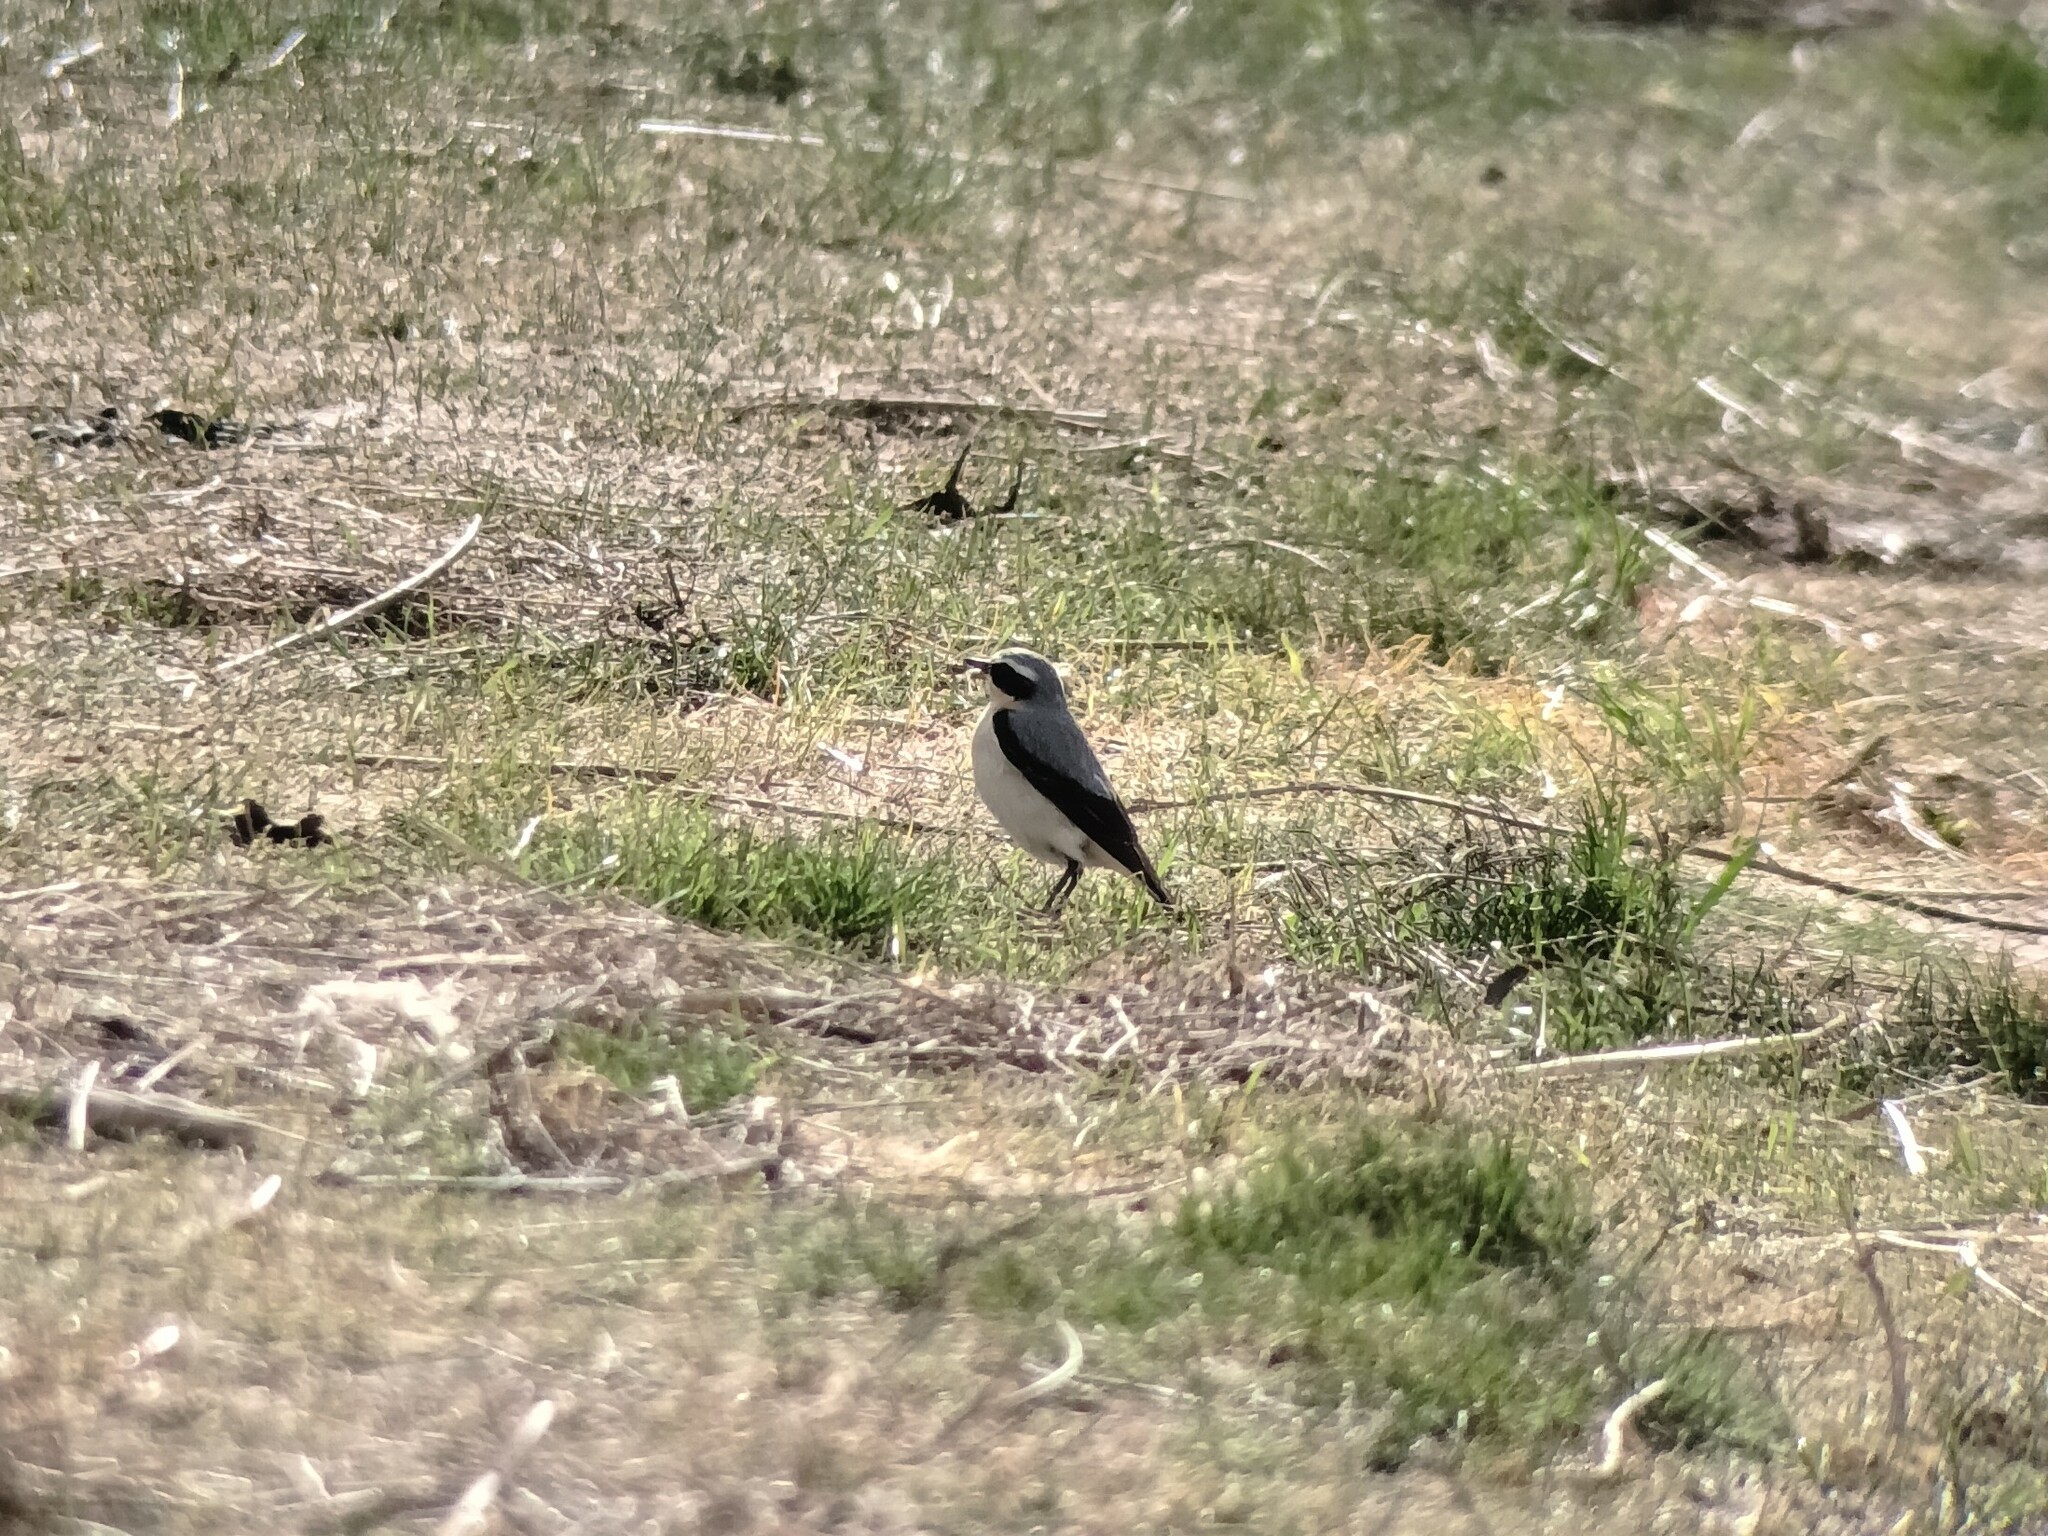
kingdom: Animalia
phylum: Chordata
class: Aves
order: Passeriformes
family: Muscicapidae
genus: Oenanthe
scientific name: Oenanthe oenanthe
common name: Northern wheatear
